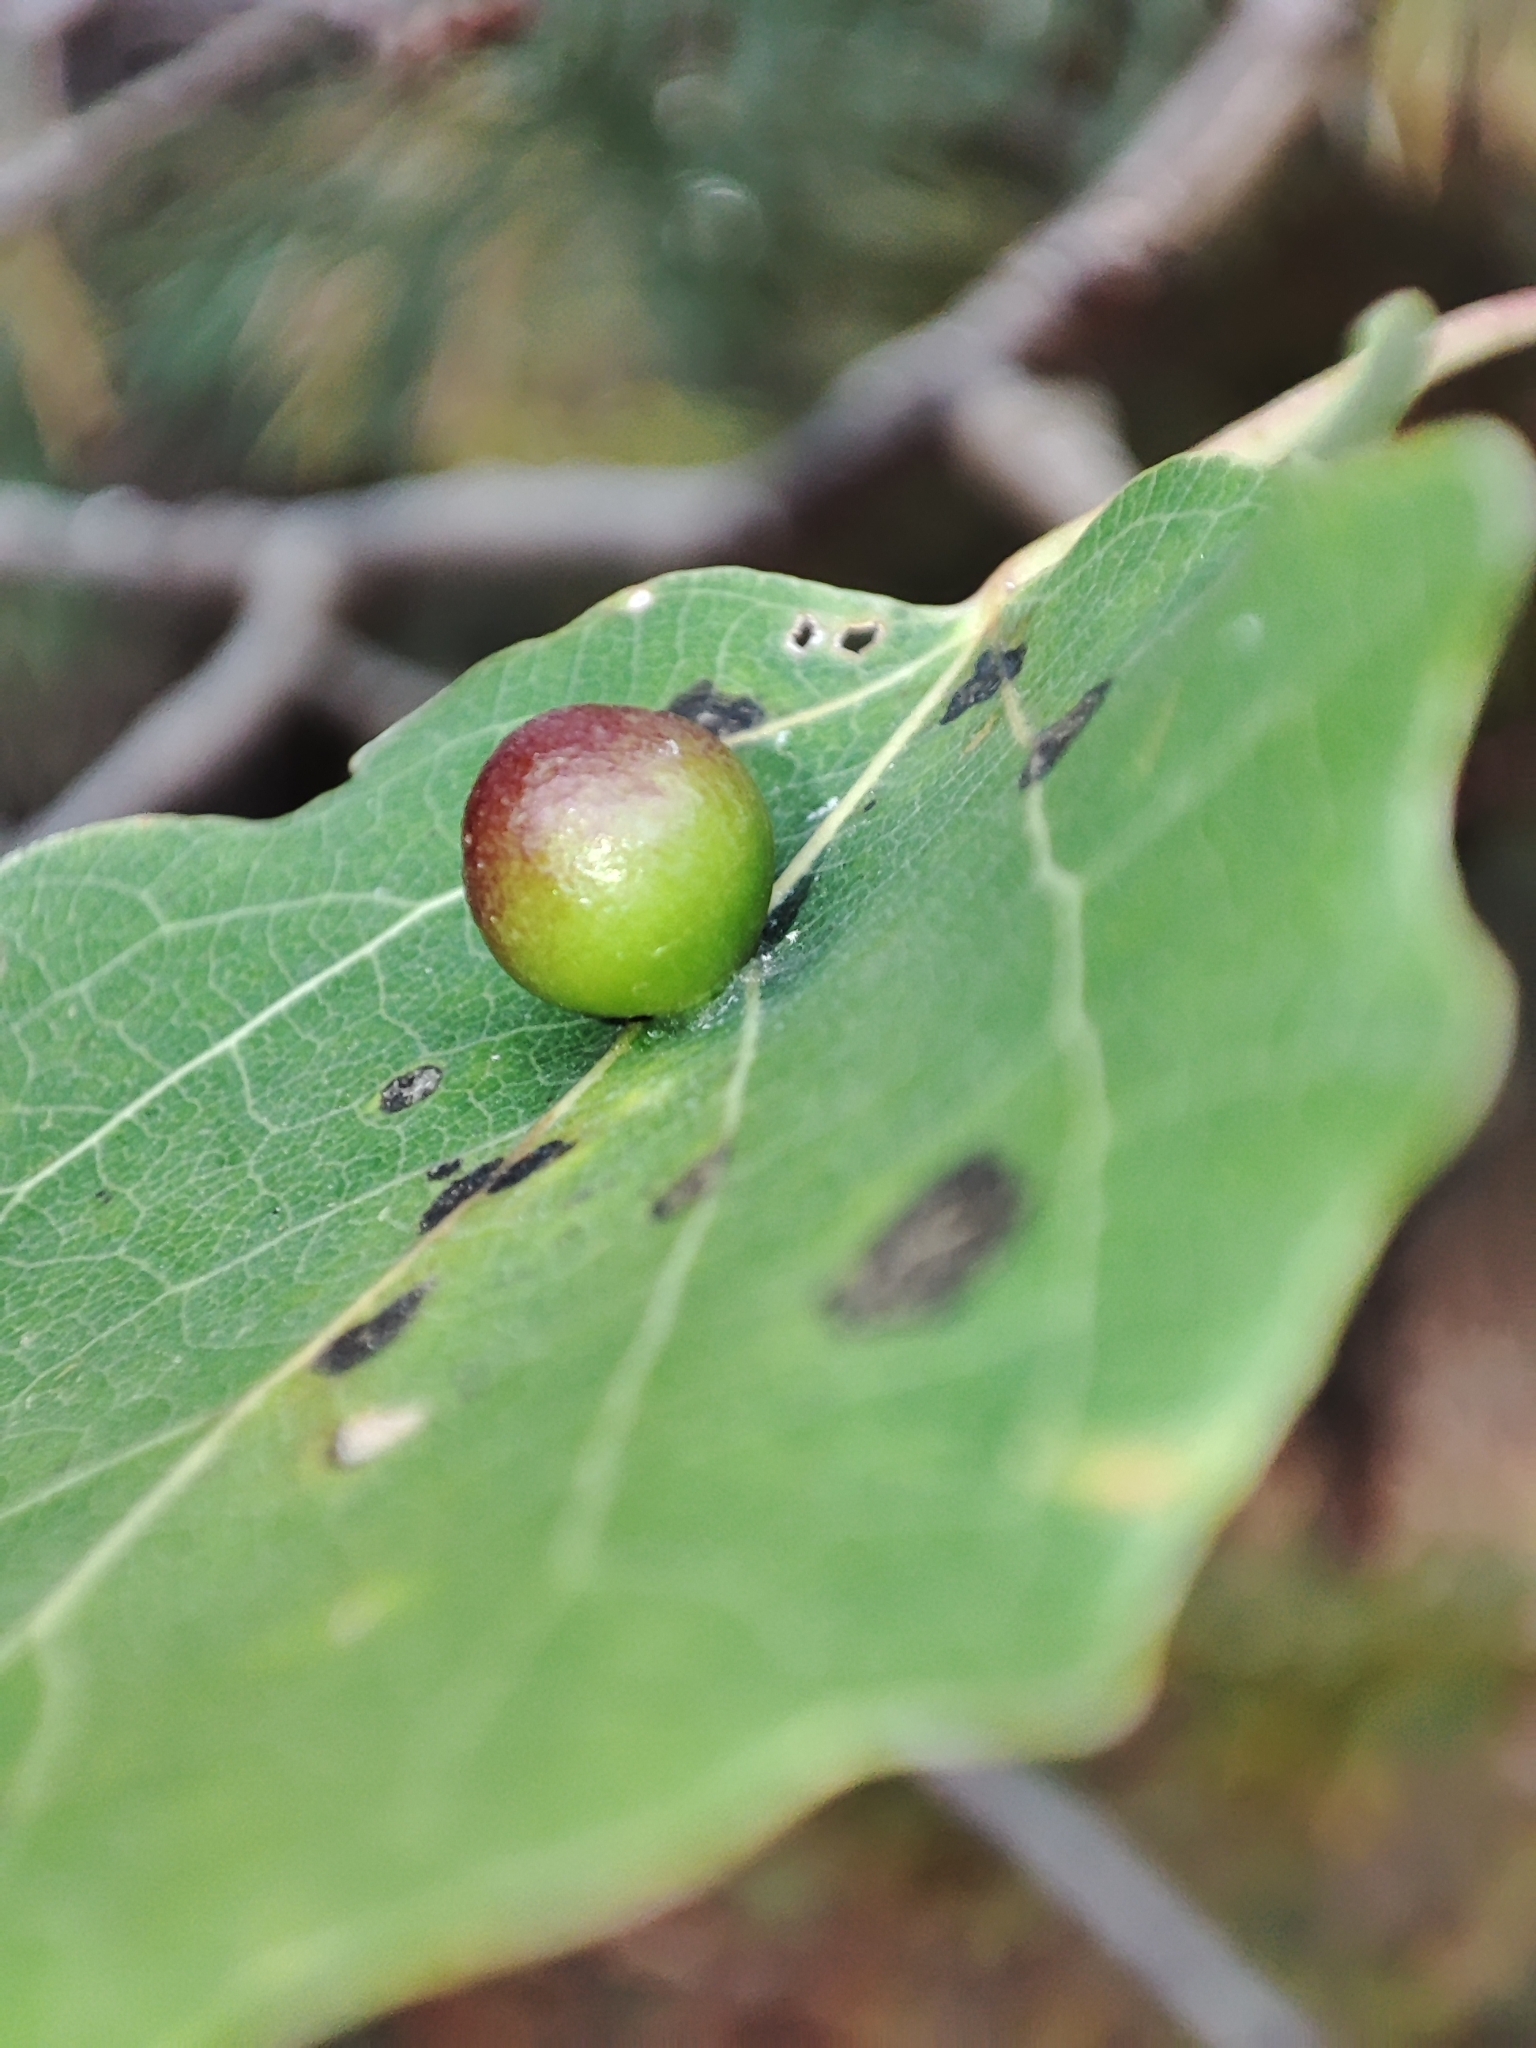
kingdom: Plantae
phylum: Tracheophyta
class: Magnoliopsida
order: Malpighiales
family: Salicaceae
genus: Populus
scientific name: Populus tremula
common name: European aspen
